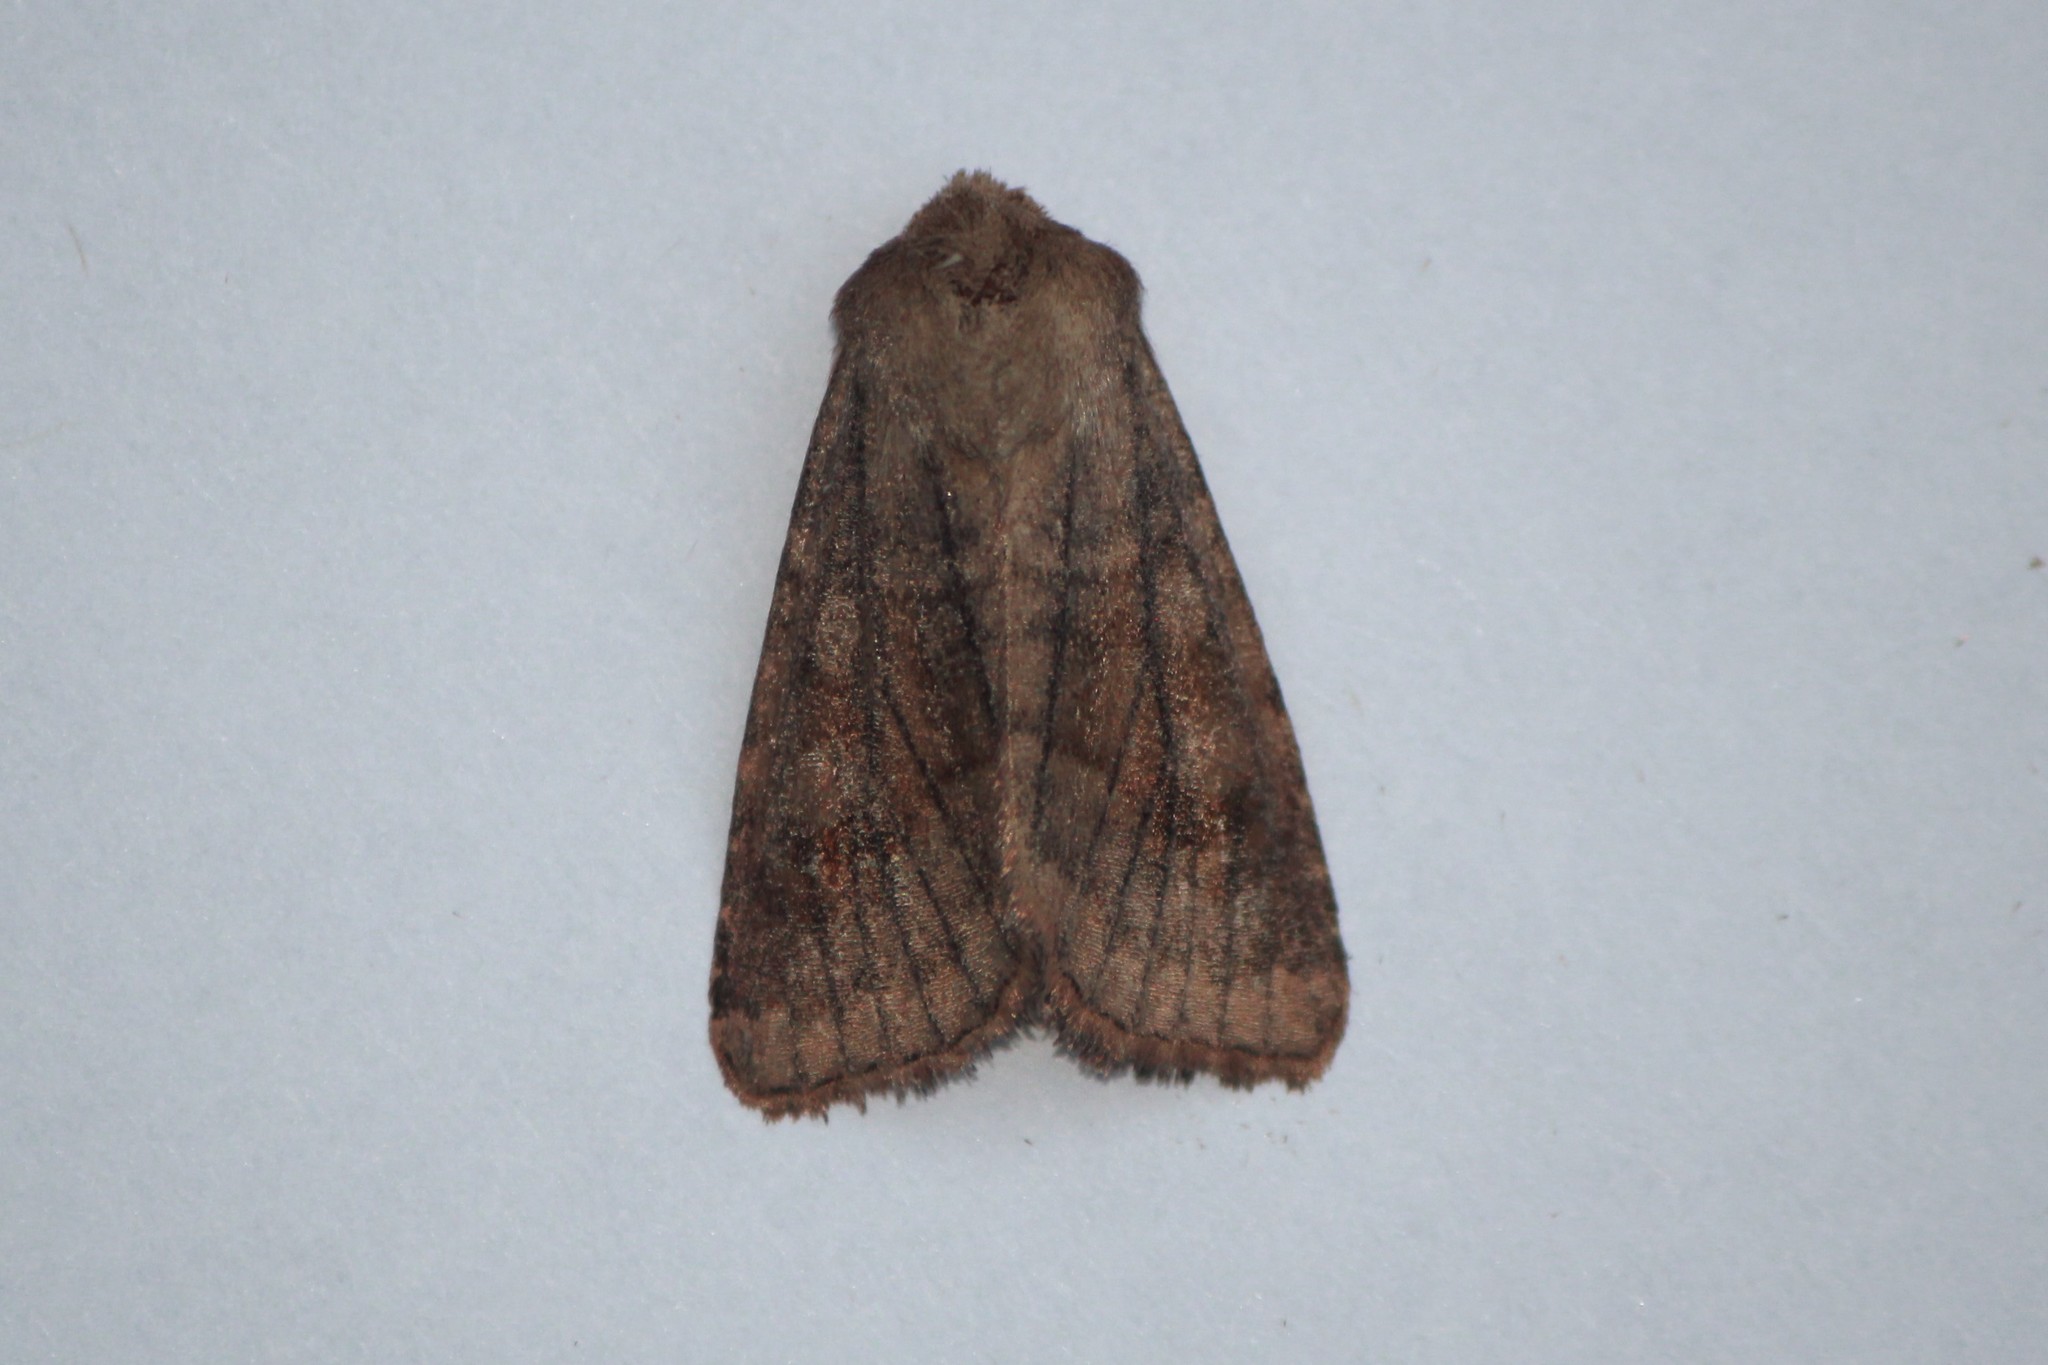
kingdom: Animalia
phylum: Arthropoda
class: Insecta
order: Lepidoptera
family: Noctuidae
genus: Nephelodes
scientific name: Nephelodes minians
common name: Bronzed cutworm
